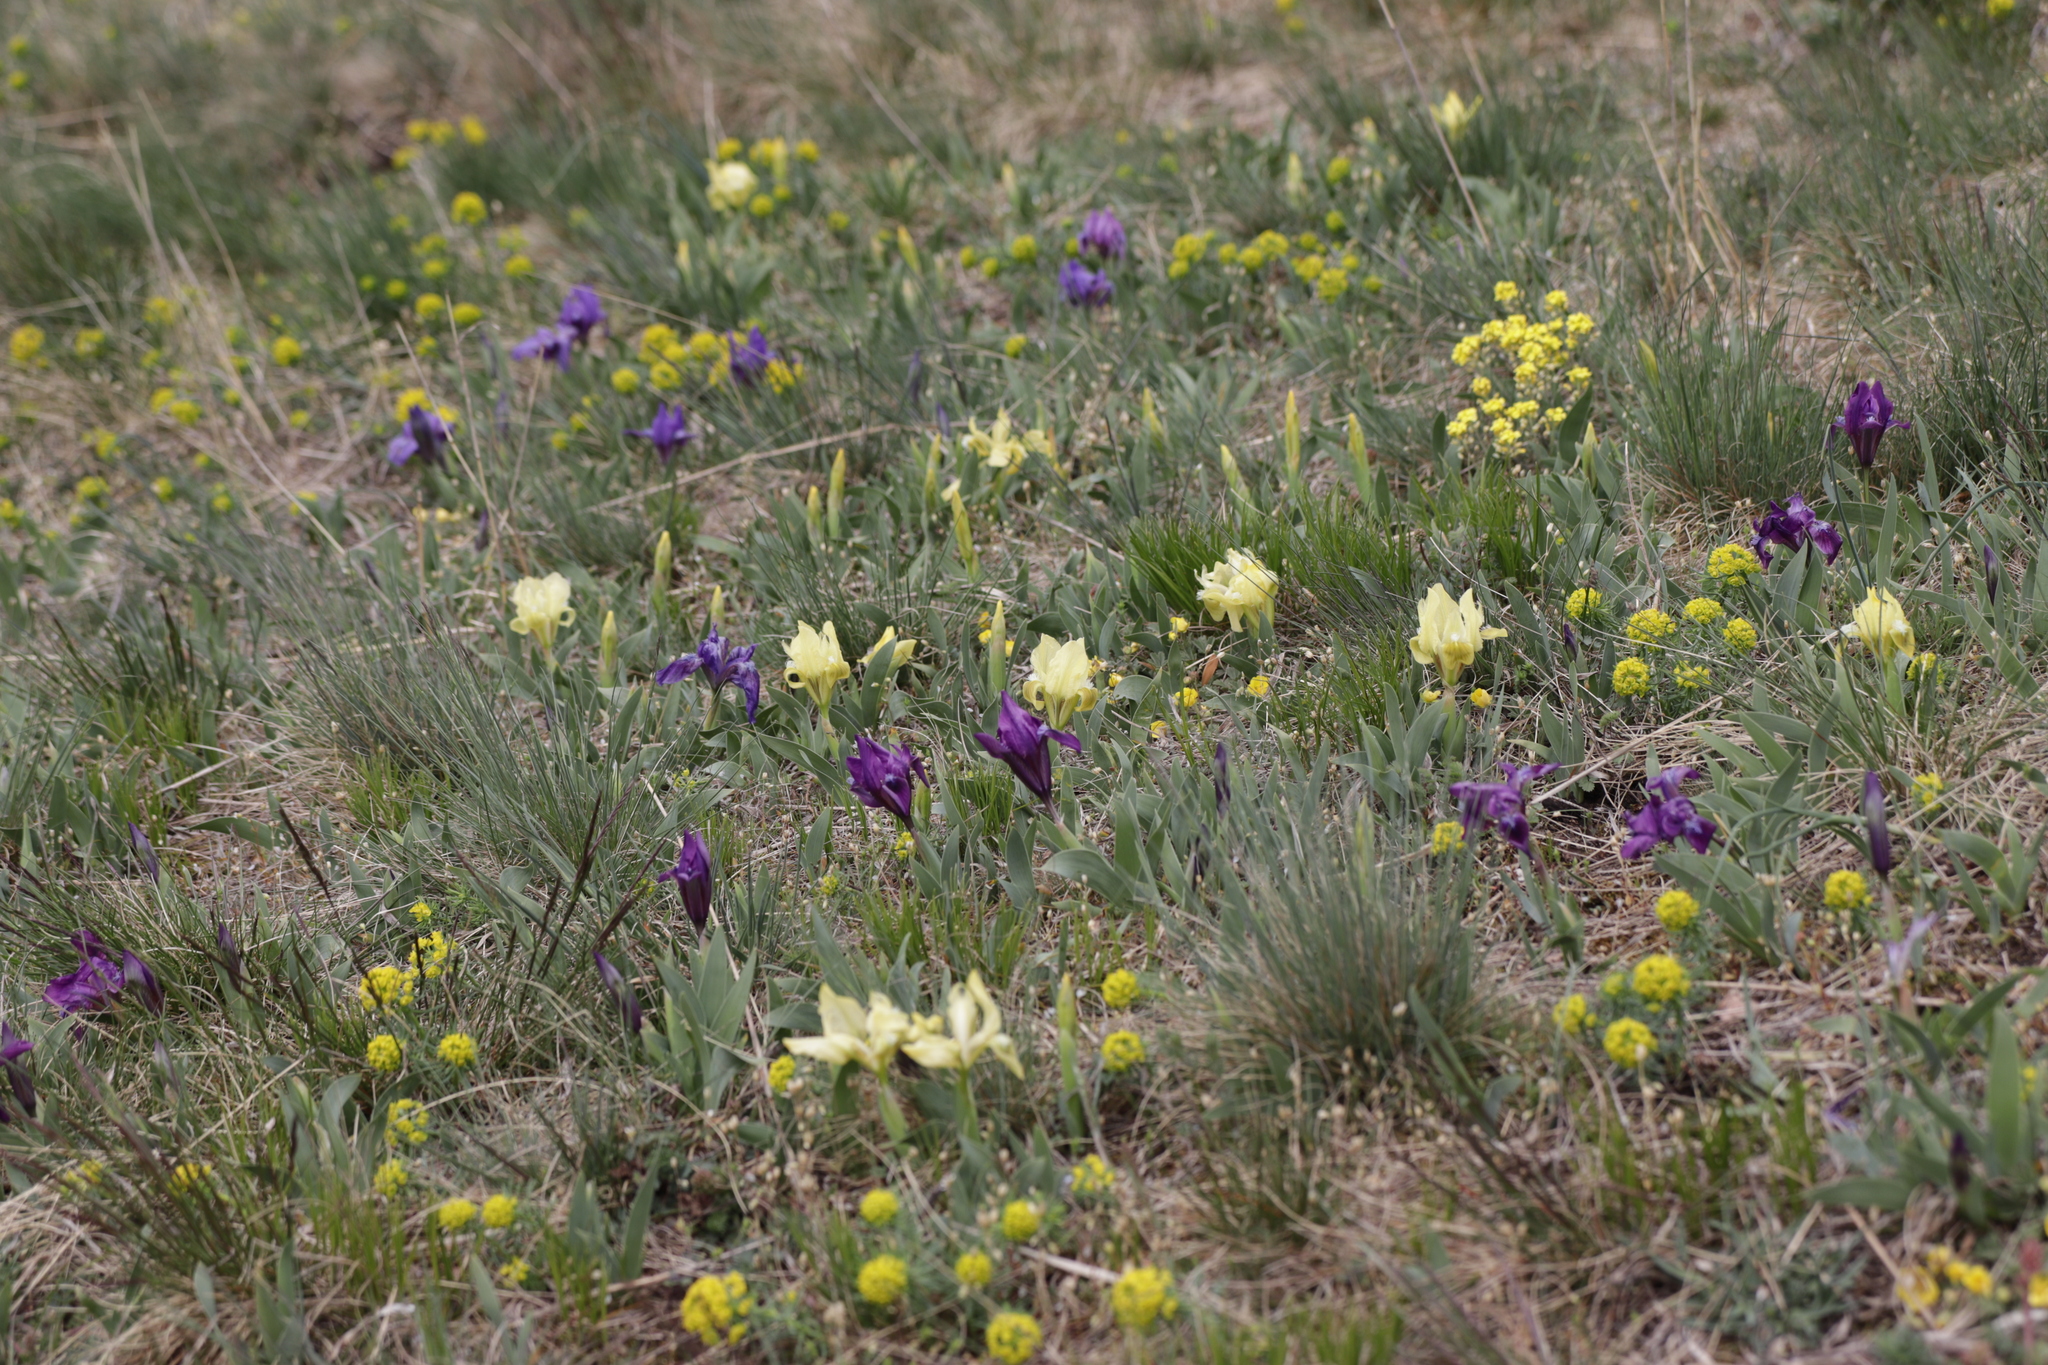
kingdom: Plantae
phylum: Tracheophyta
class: Liliopsida
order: Asparagales
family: Iridaceae
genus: Iris
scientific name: Iris pumila
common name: Dwarf iris
